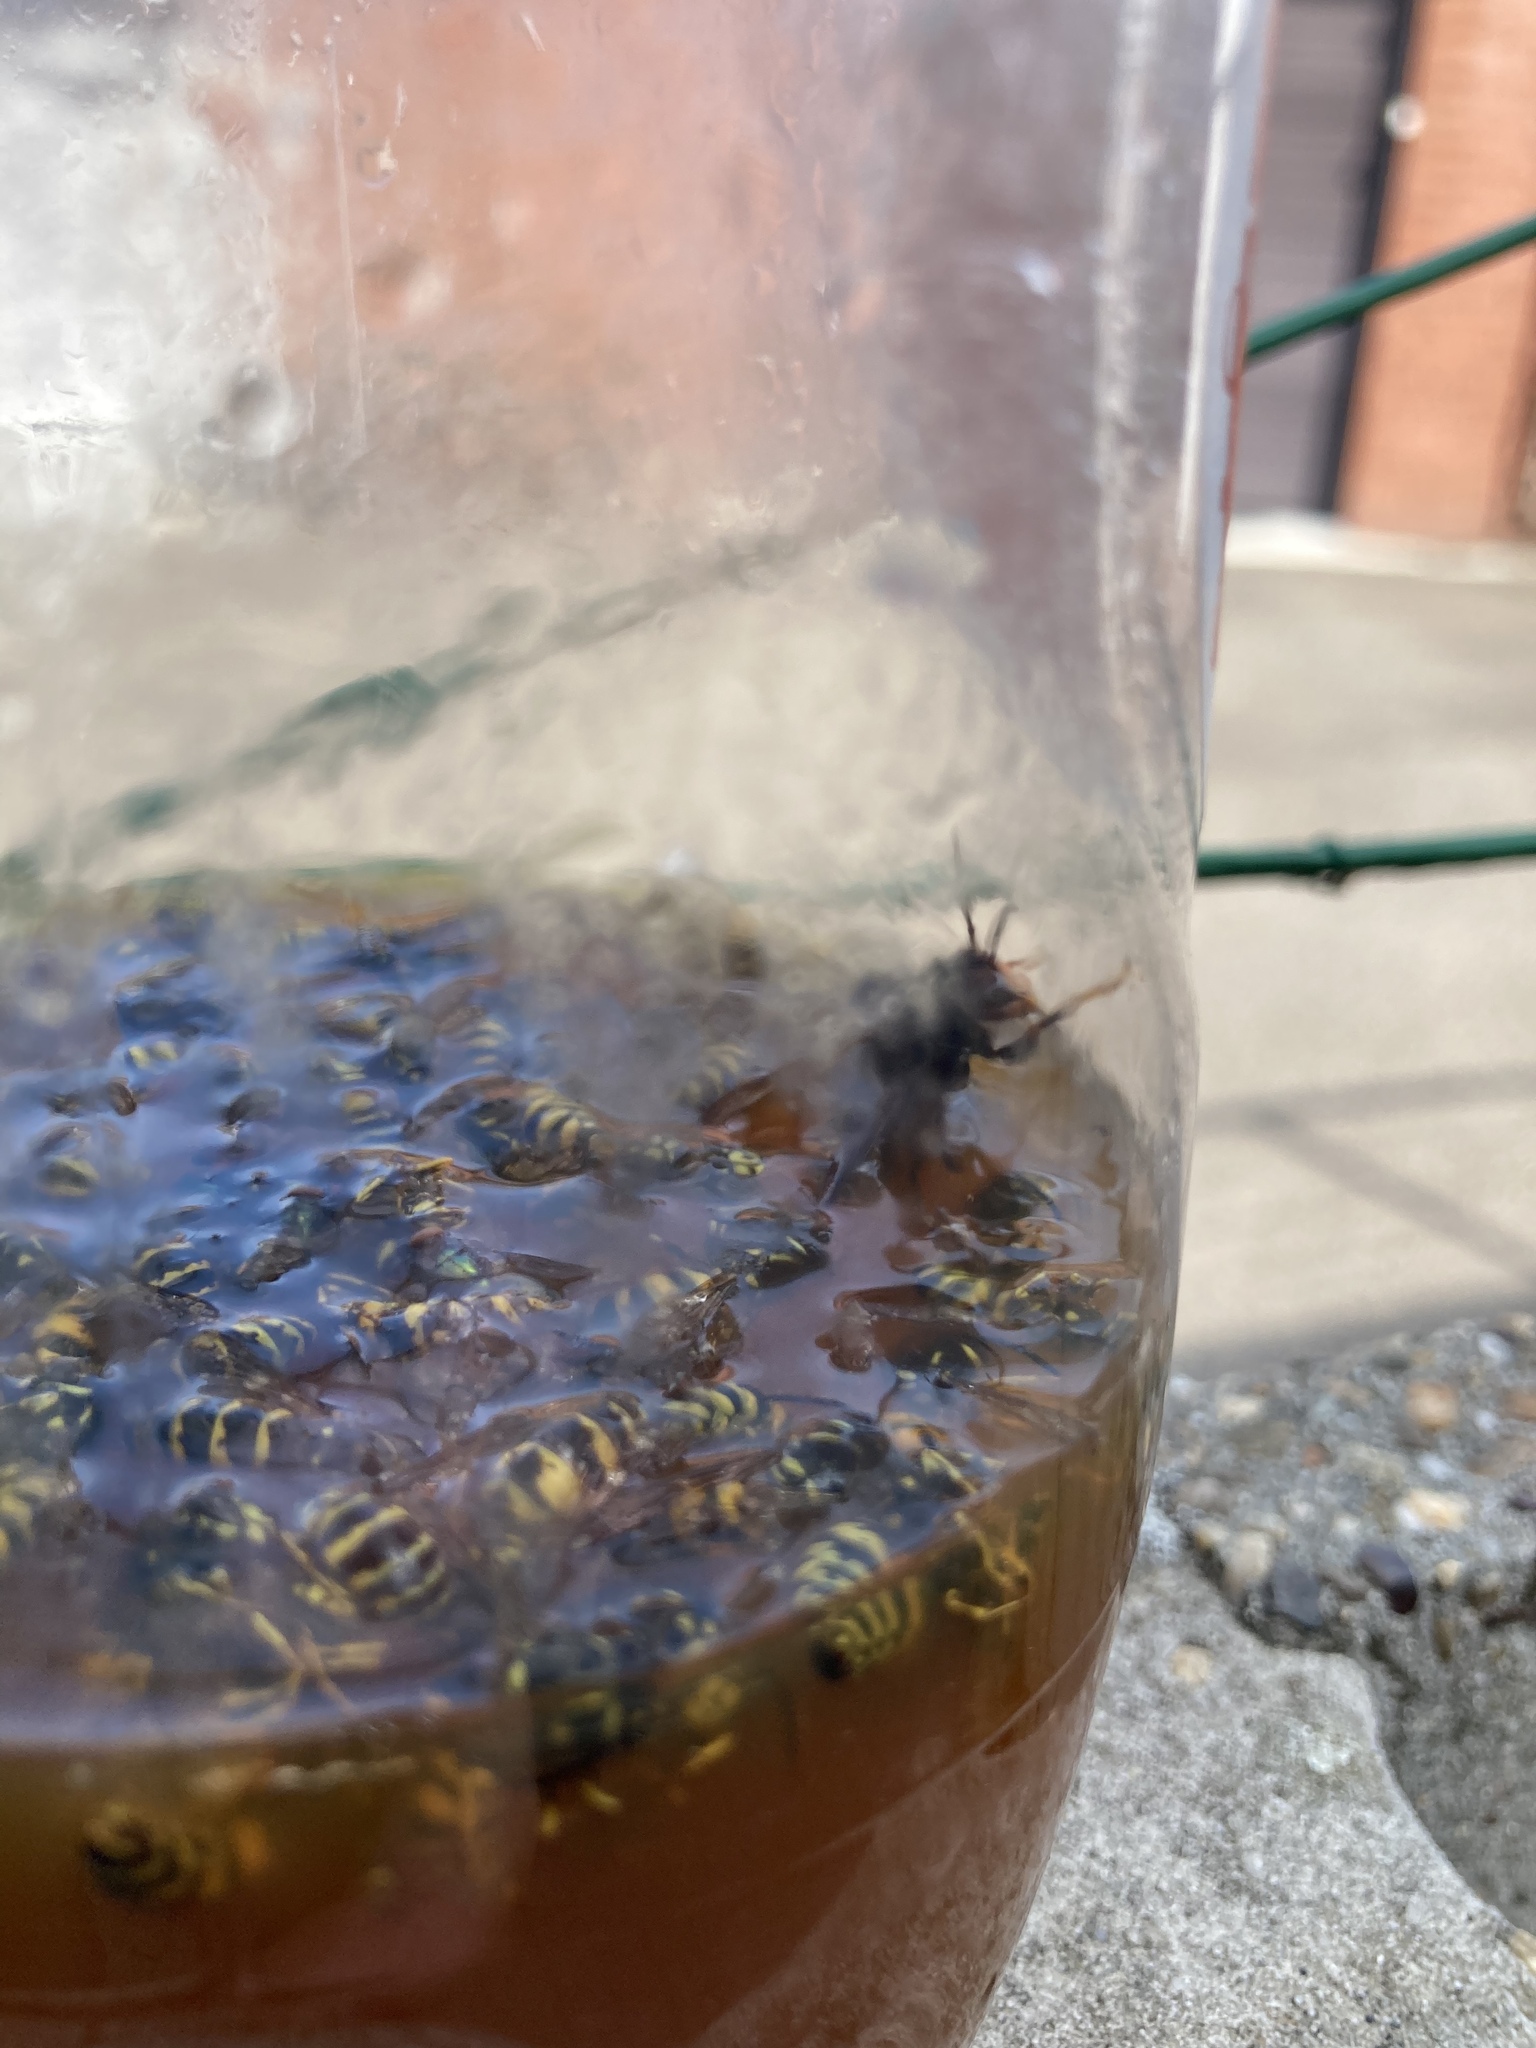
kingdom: Animalia
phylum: Arthropoda
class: Insecta
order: Hymenoptera
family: Vespidae
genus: Vespa
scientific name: Vespa velutina
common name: Asian hornet
